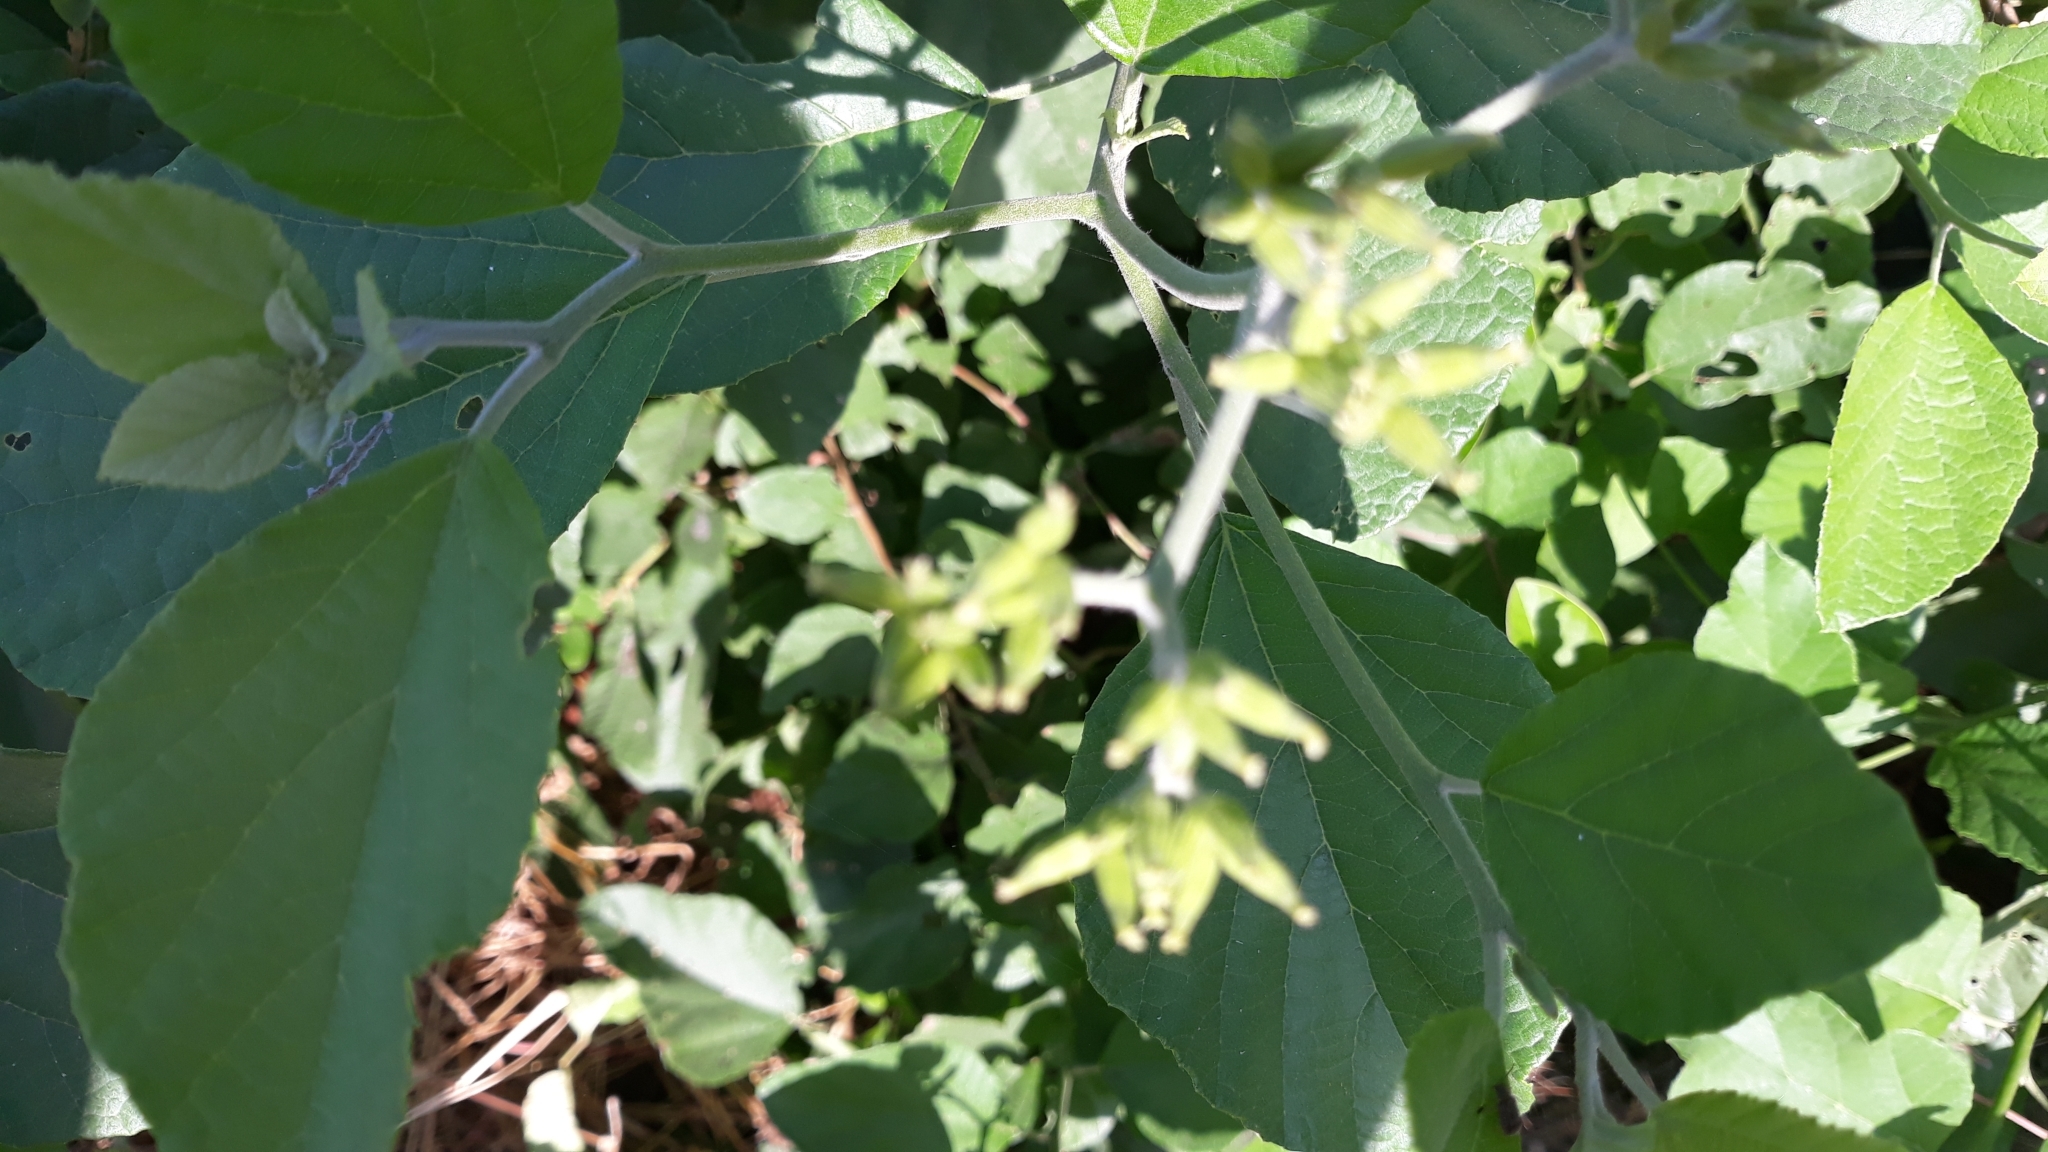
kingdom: Plantae
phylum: Tracheophyta
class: Magnoliopsida
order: Boraginales
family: Cordiaceae
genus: Cordia
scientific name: Cordia lutea
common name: Yellow geiger
